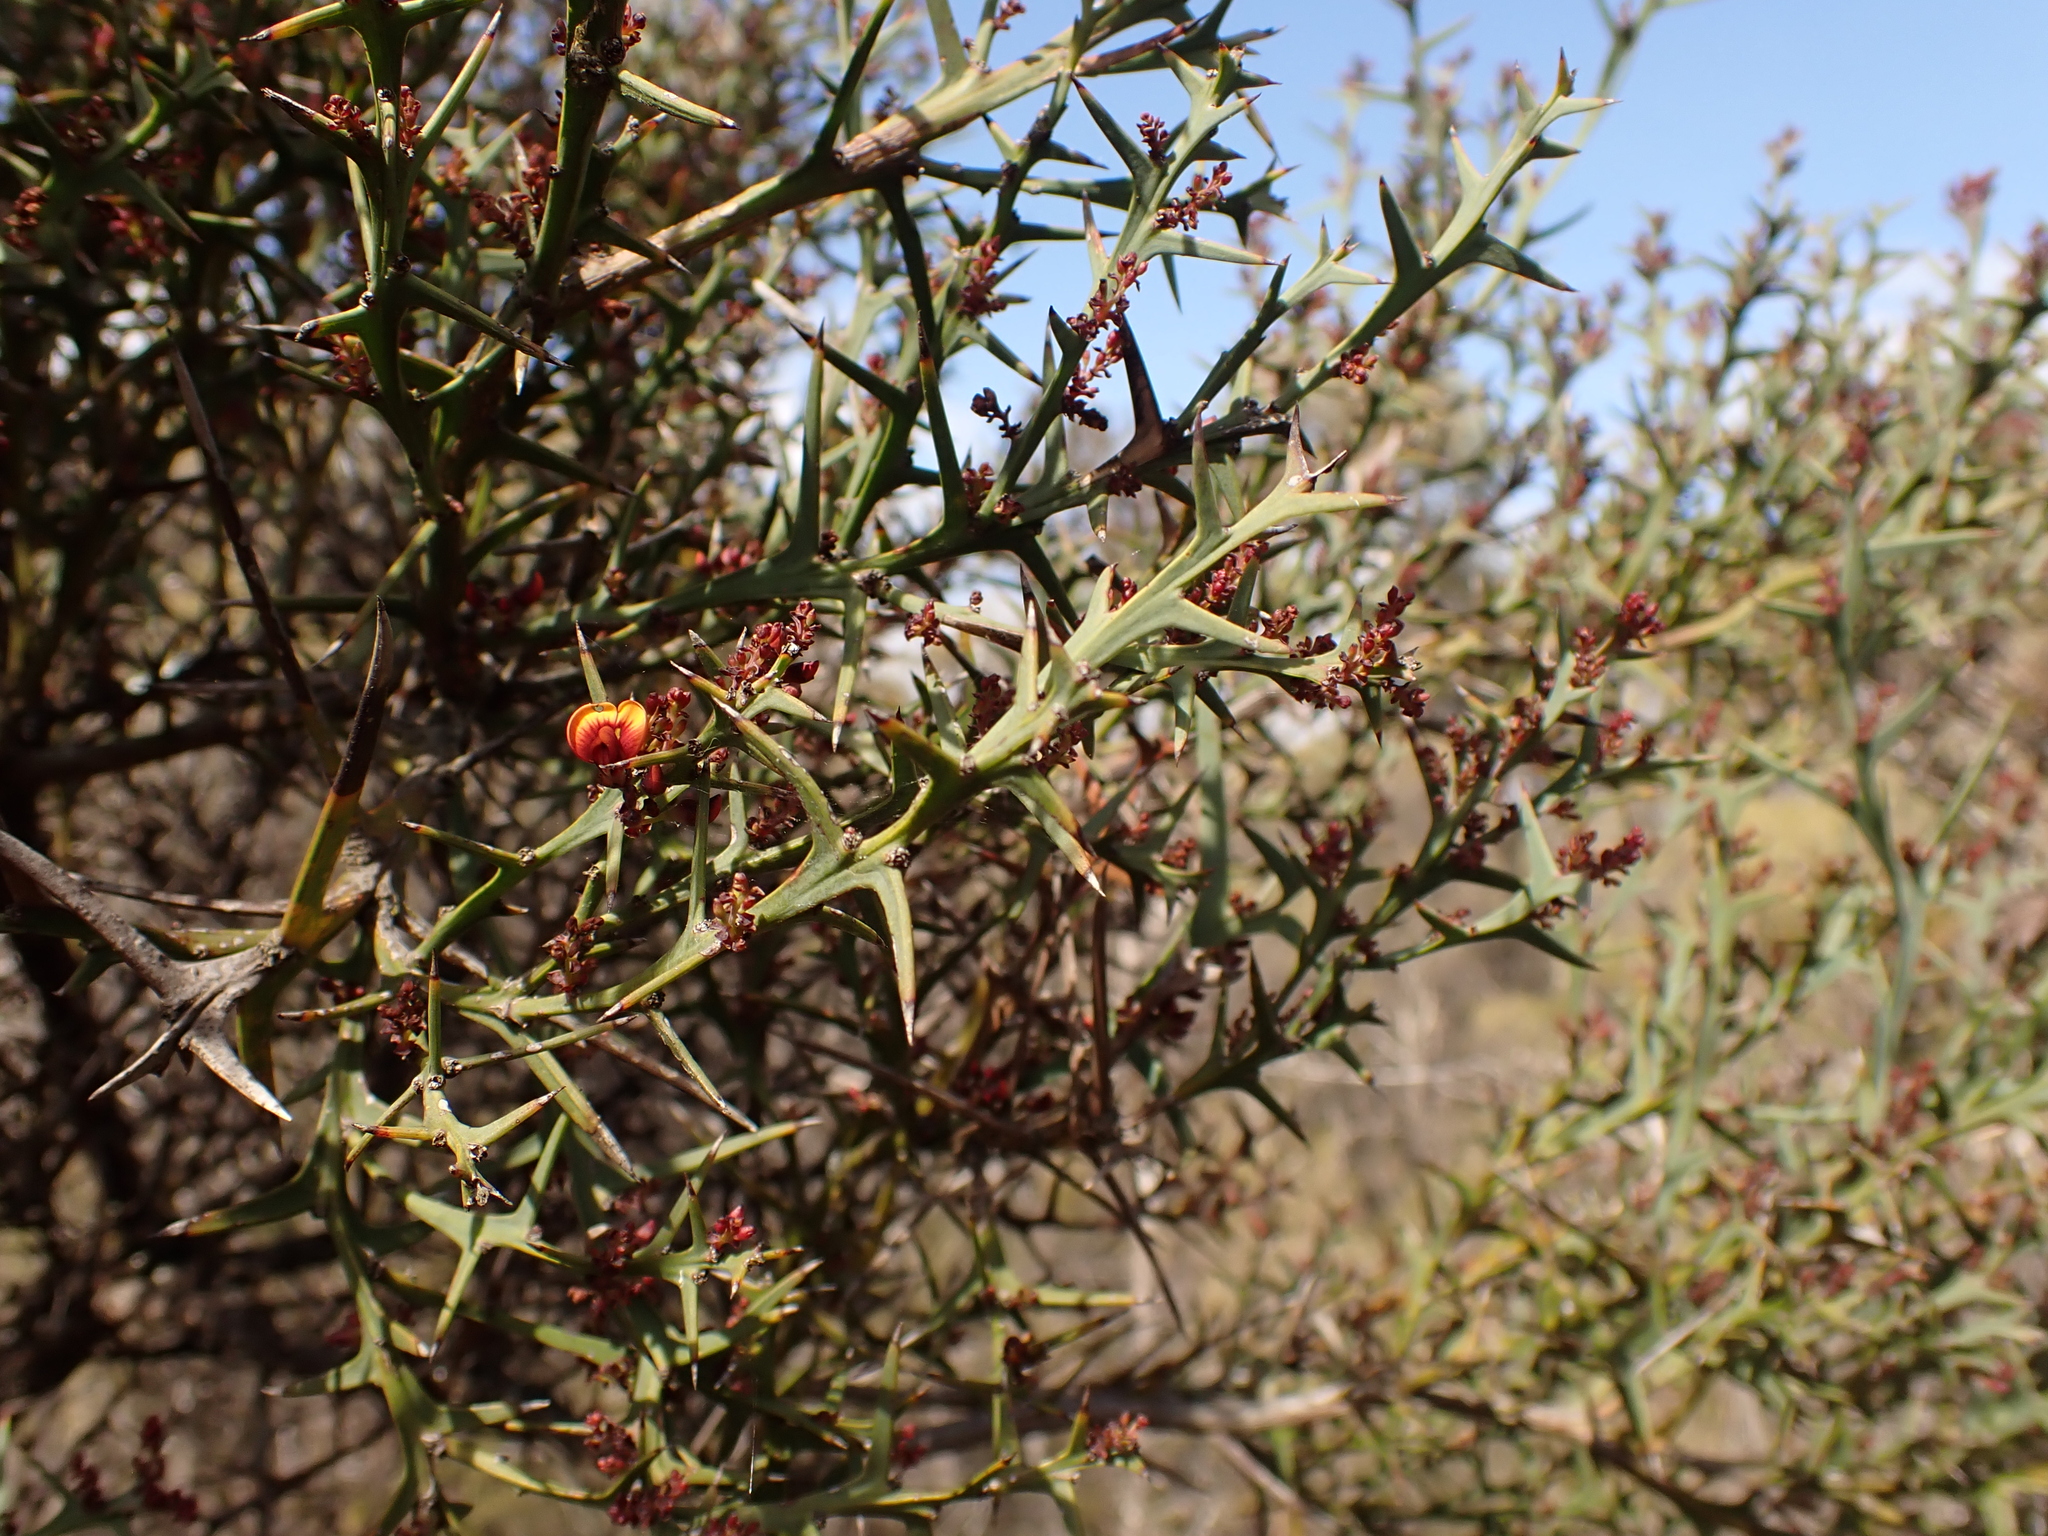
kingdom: Plantae
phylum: Tracheophyta
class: Magnoliopsida
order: Fabales
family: Fabaceae
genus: Daviesia
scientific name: Daviesia pectinata
